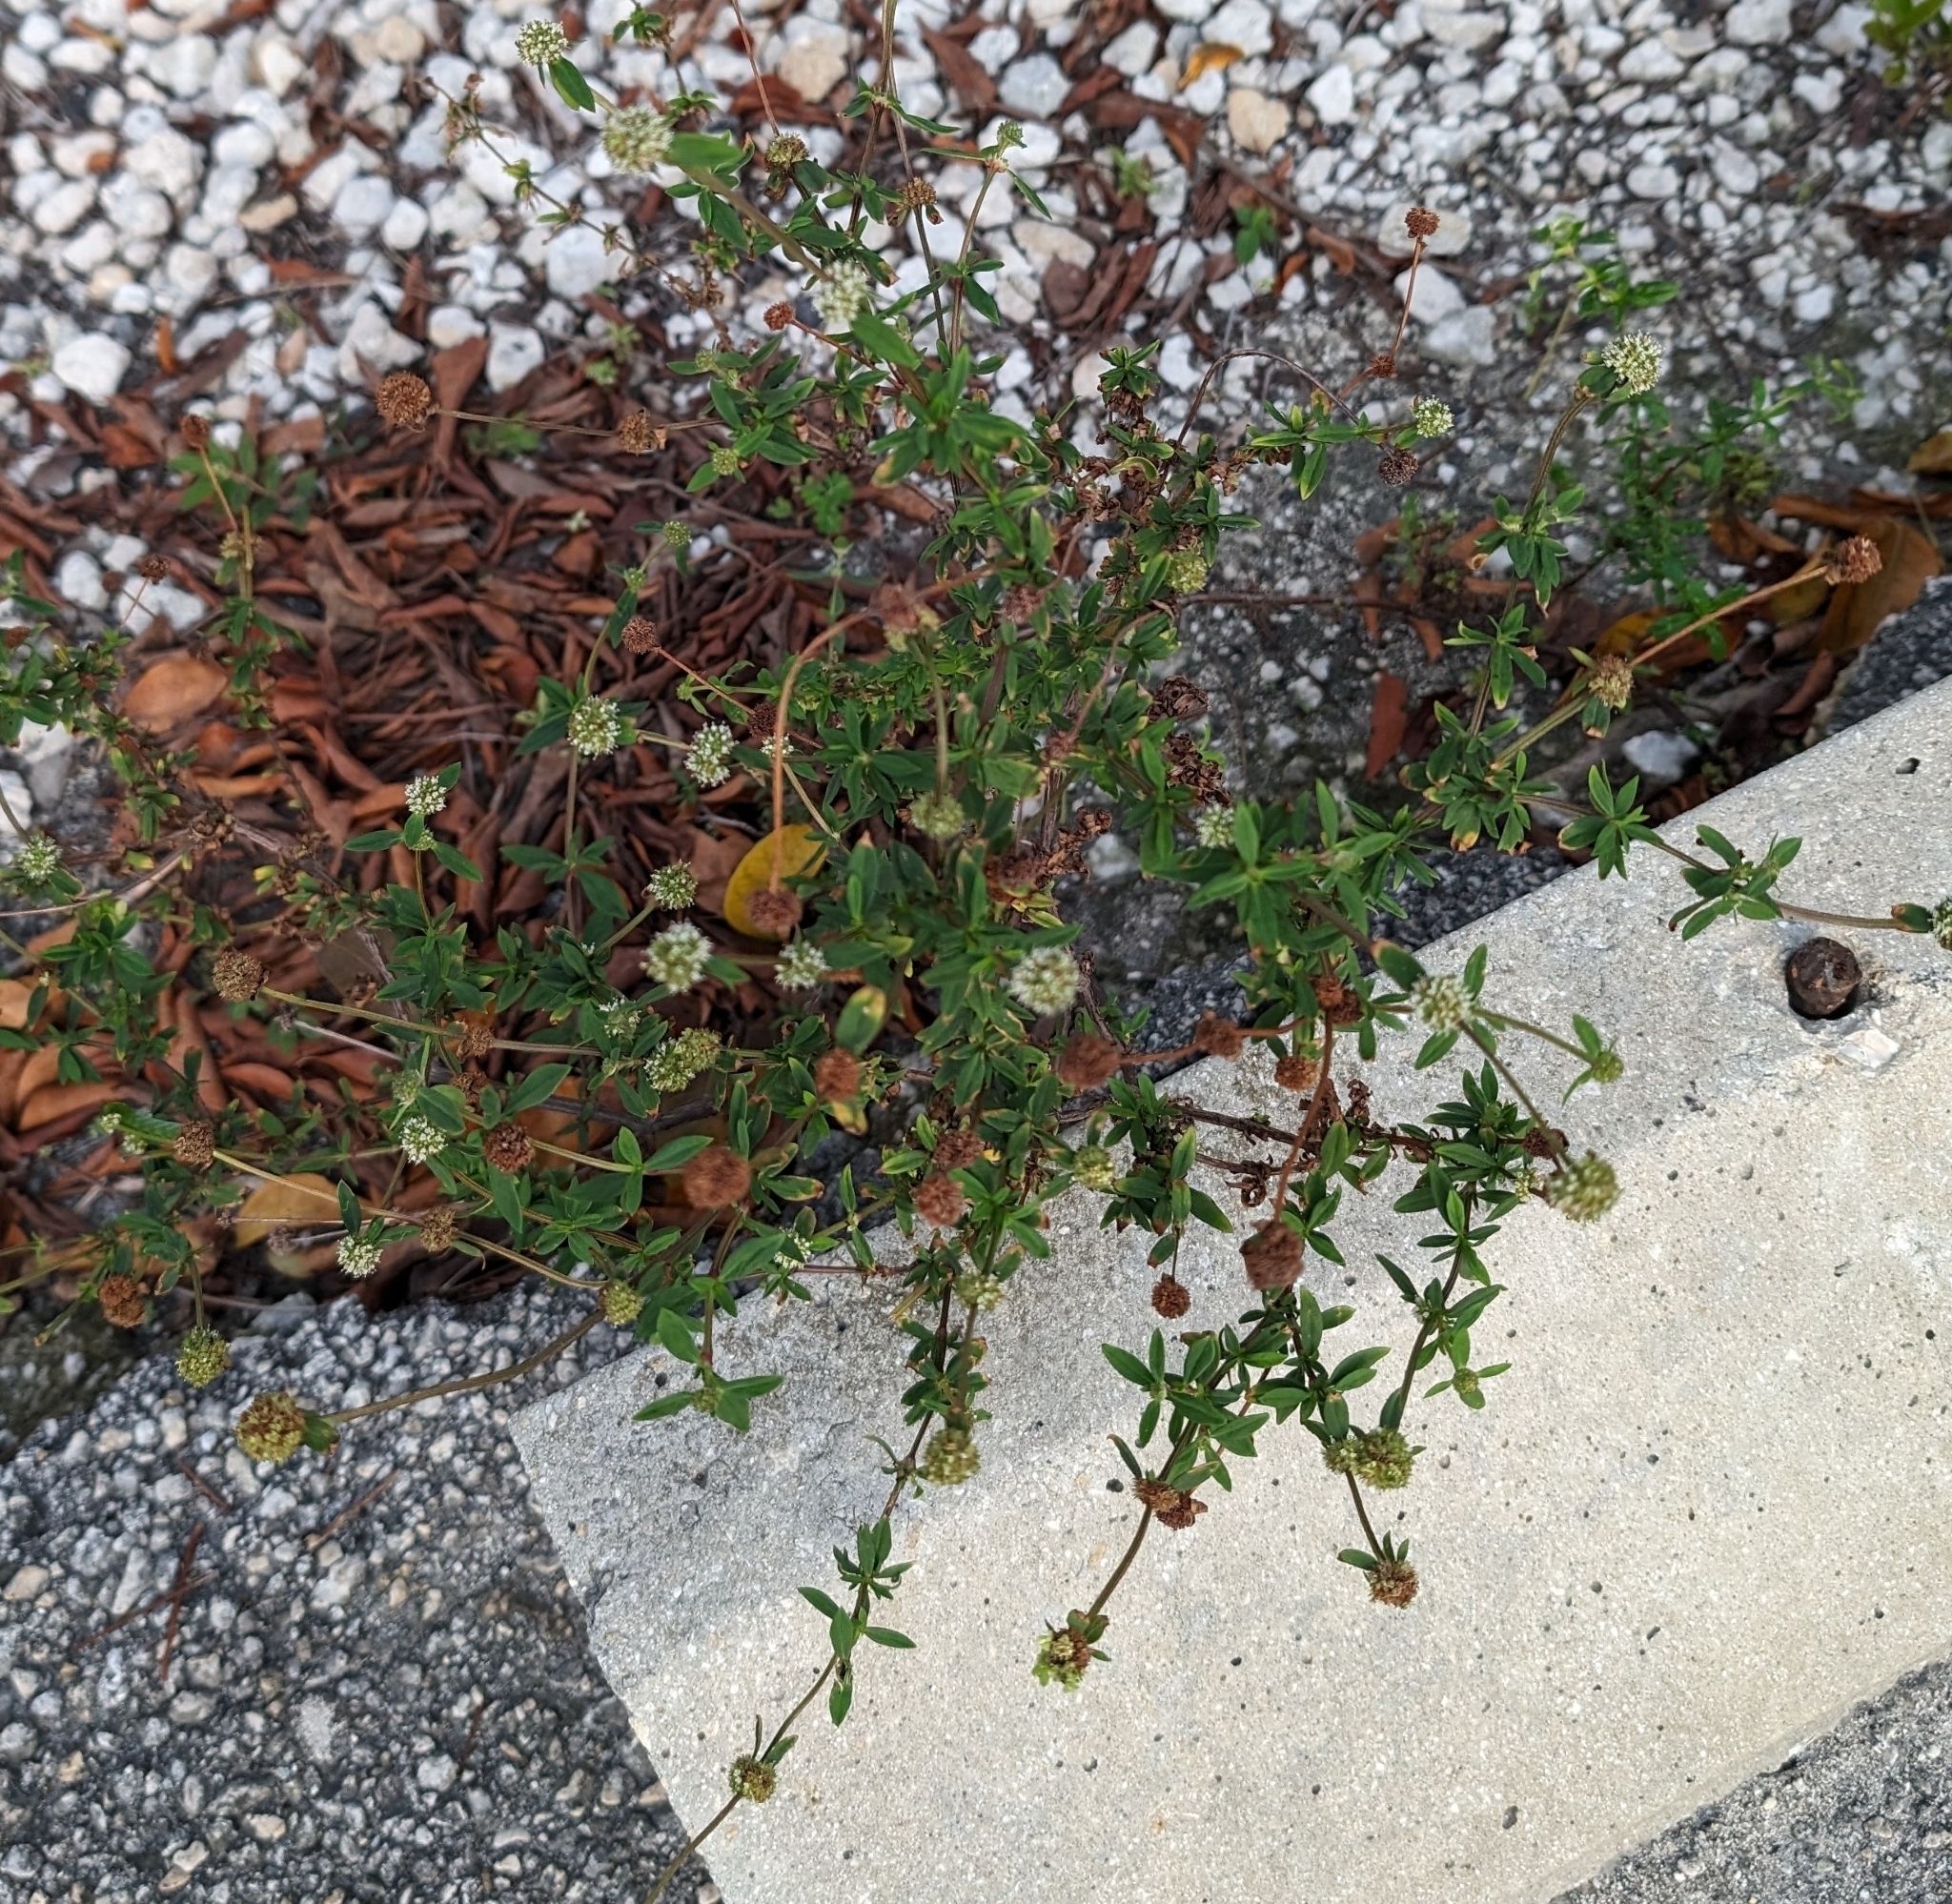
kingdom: Plantae
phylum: Tracheophyta
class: Magnoliopsida
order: Gentianales
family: Rubiaceae
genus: Spermacoce
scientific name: Spermacoce verticillata
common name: Shrubby false buttonweed
